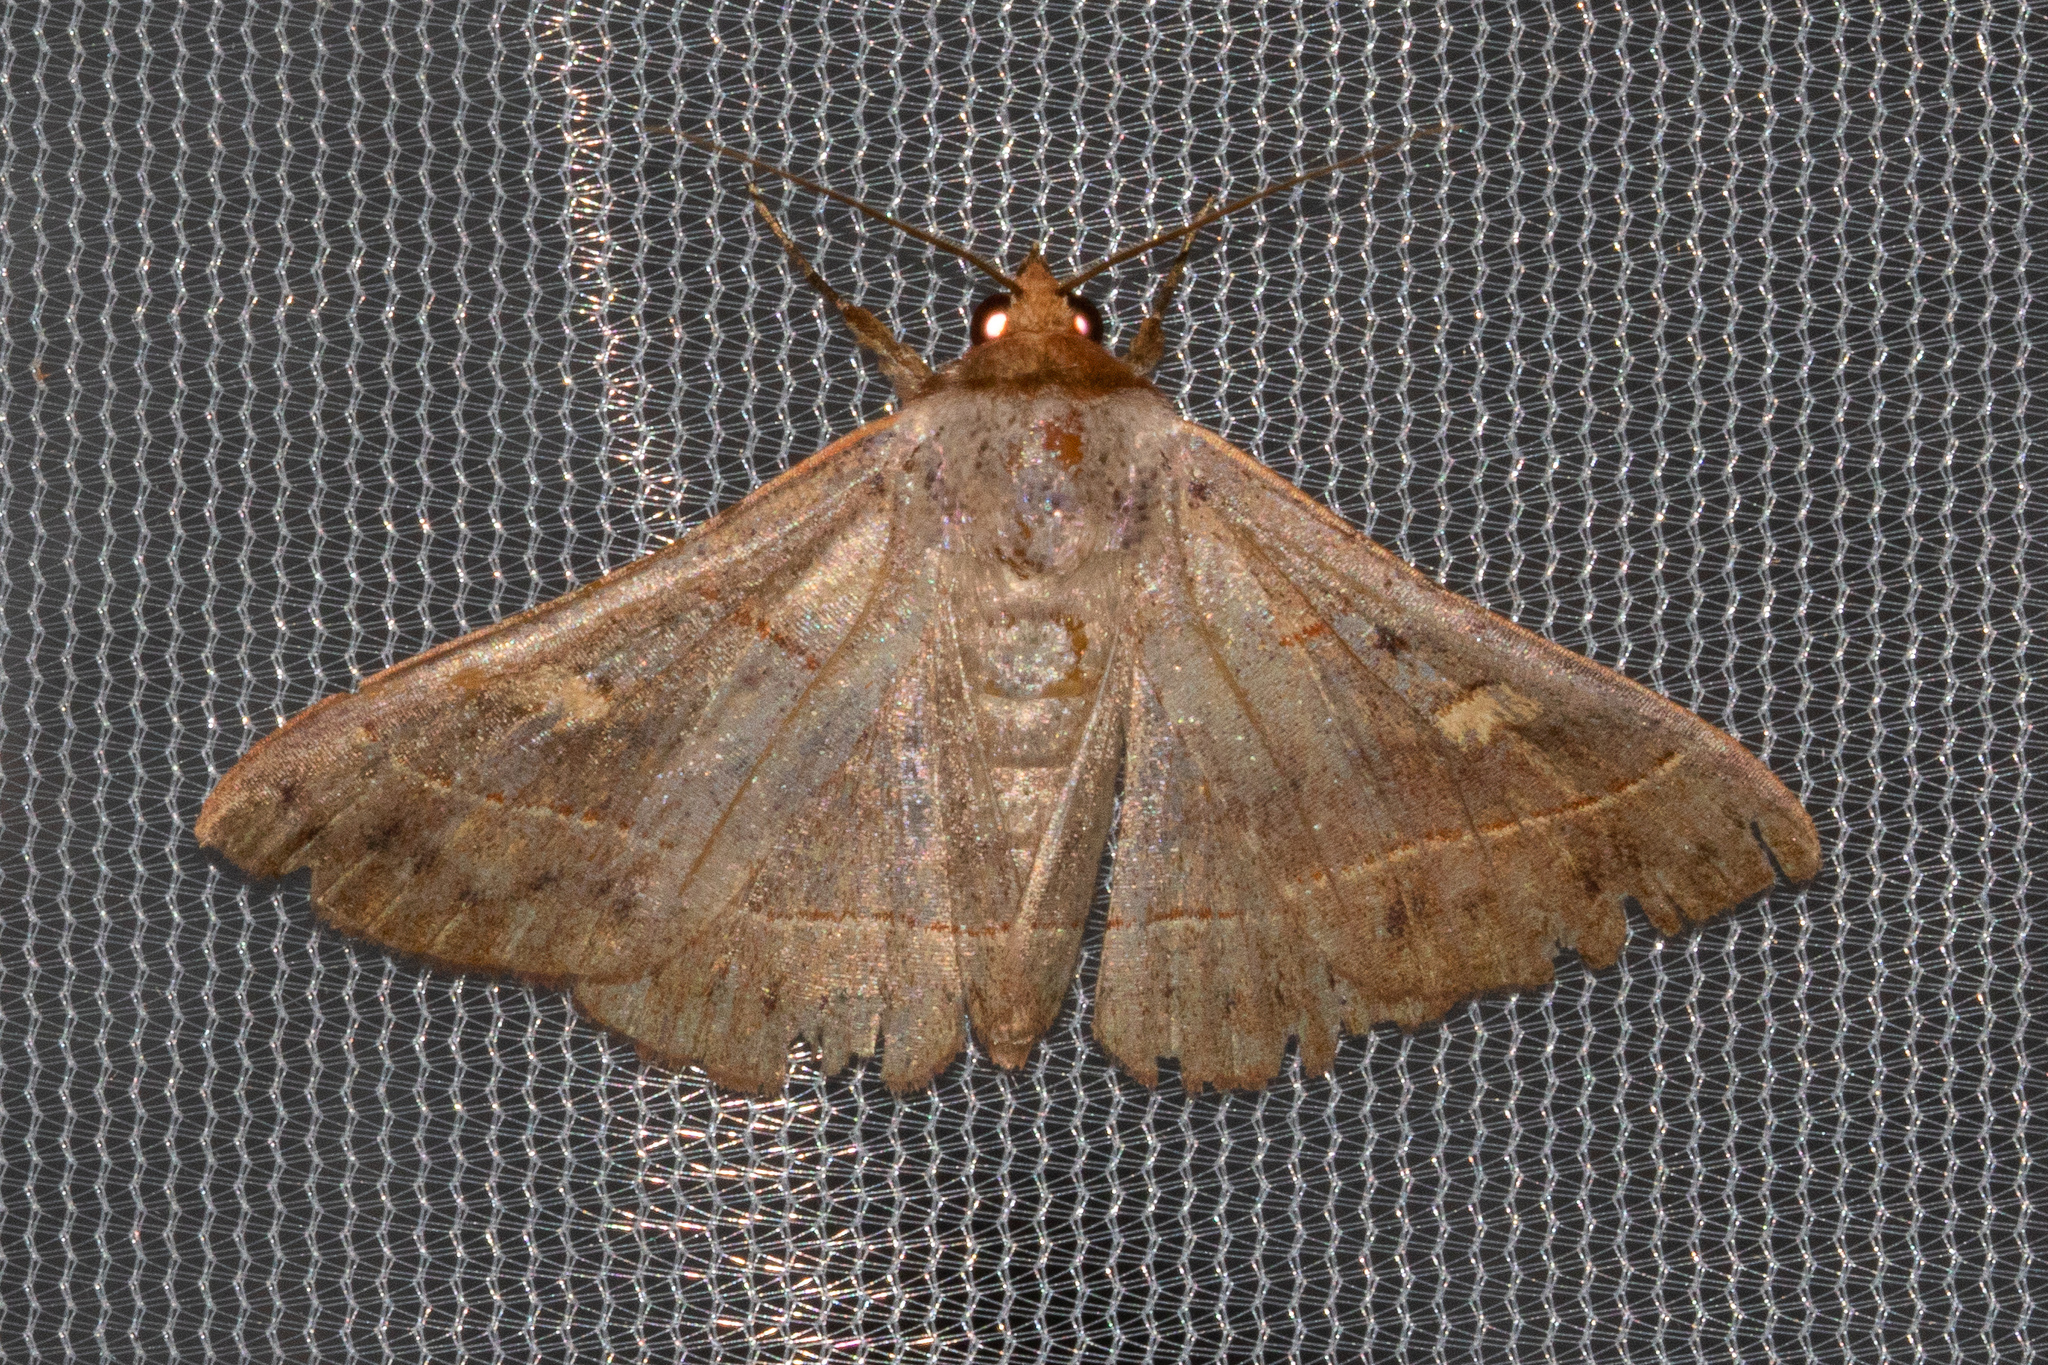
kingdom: Animalia
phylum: Arthropoda
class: Insecta
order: Lepidoptera
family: Erebidae
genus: Panopoda
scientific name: Panopoda rufimargo
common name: Red-lined panopoda moth
